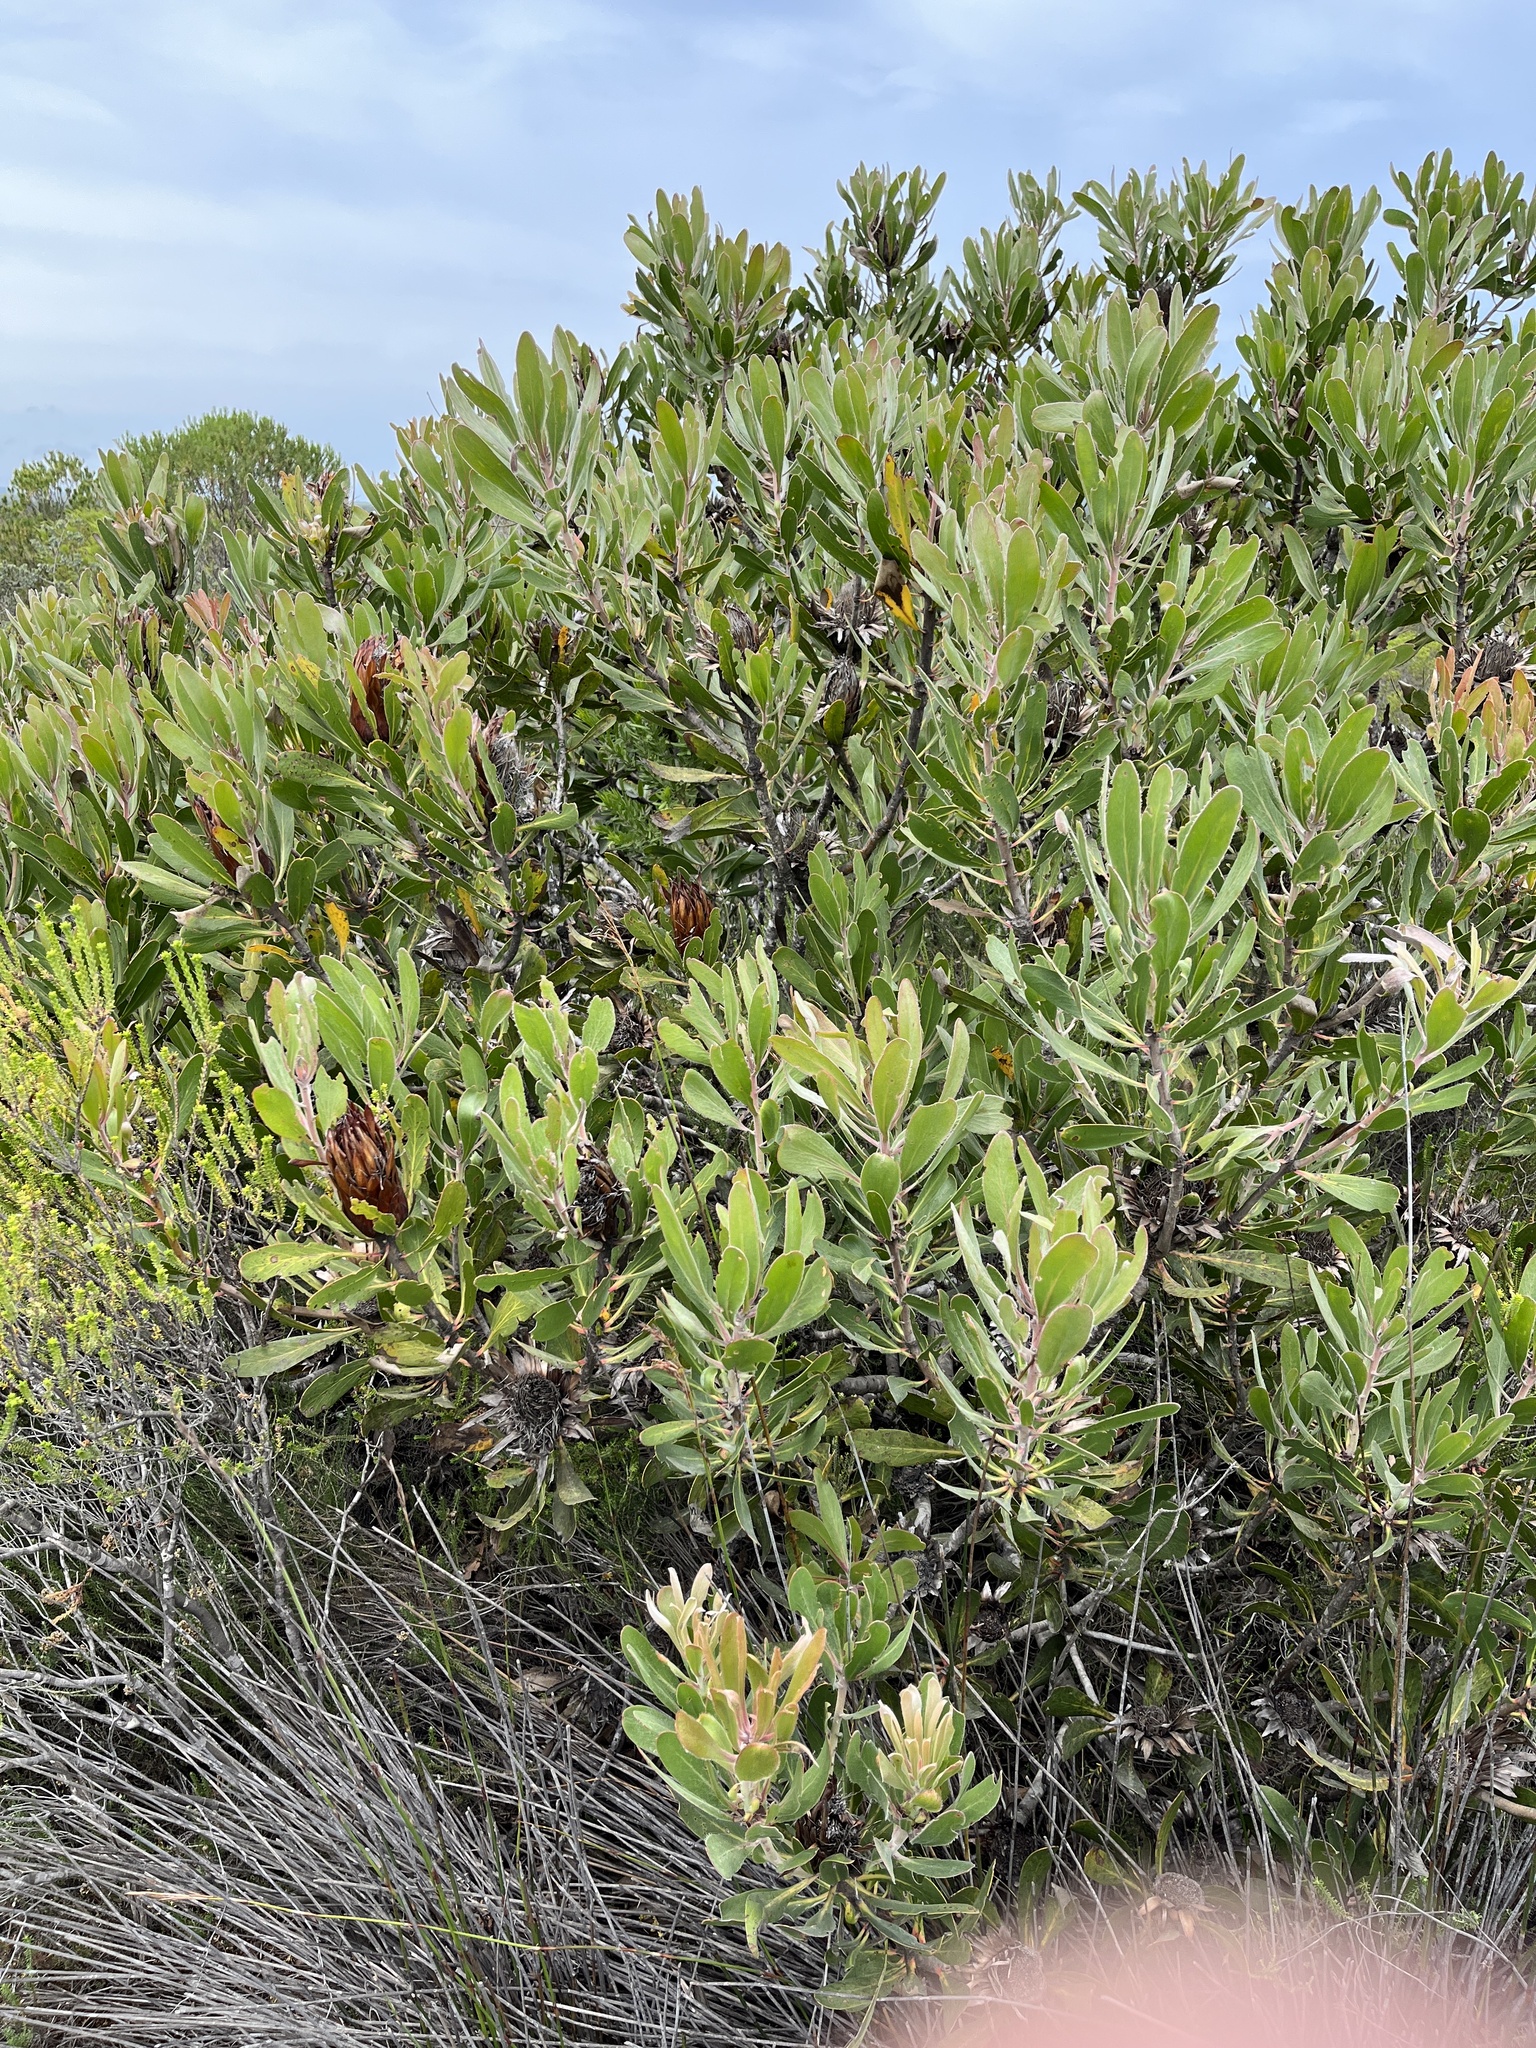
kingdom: Plantae
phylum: Tracheophyta
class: Magnoliopsida
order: Proteales
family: Proteaceae
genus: Protea
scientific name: Protea obtusifolia
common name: Bredasdorp sugarbush
